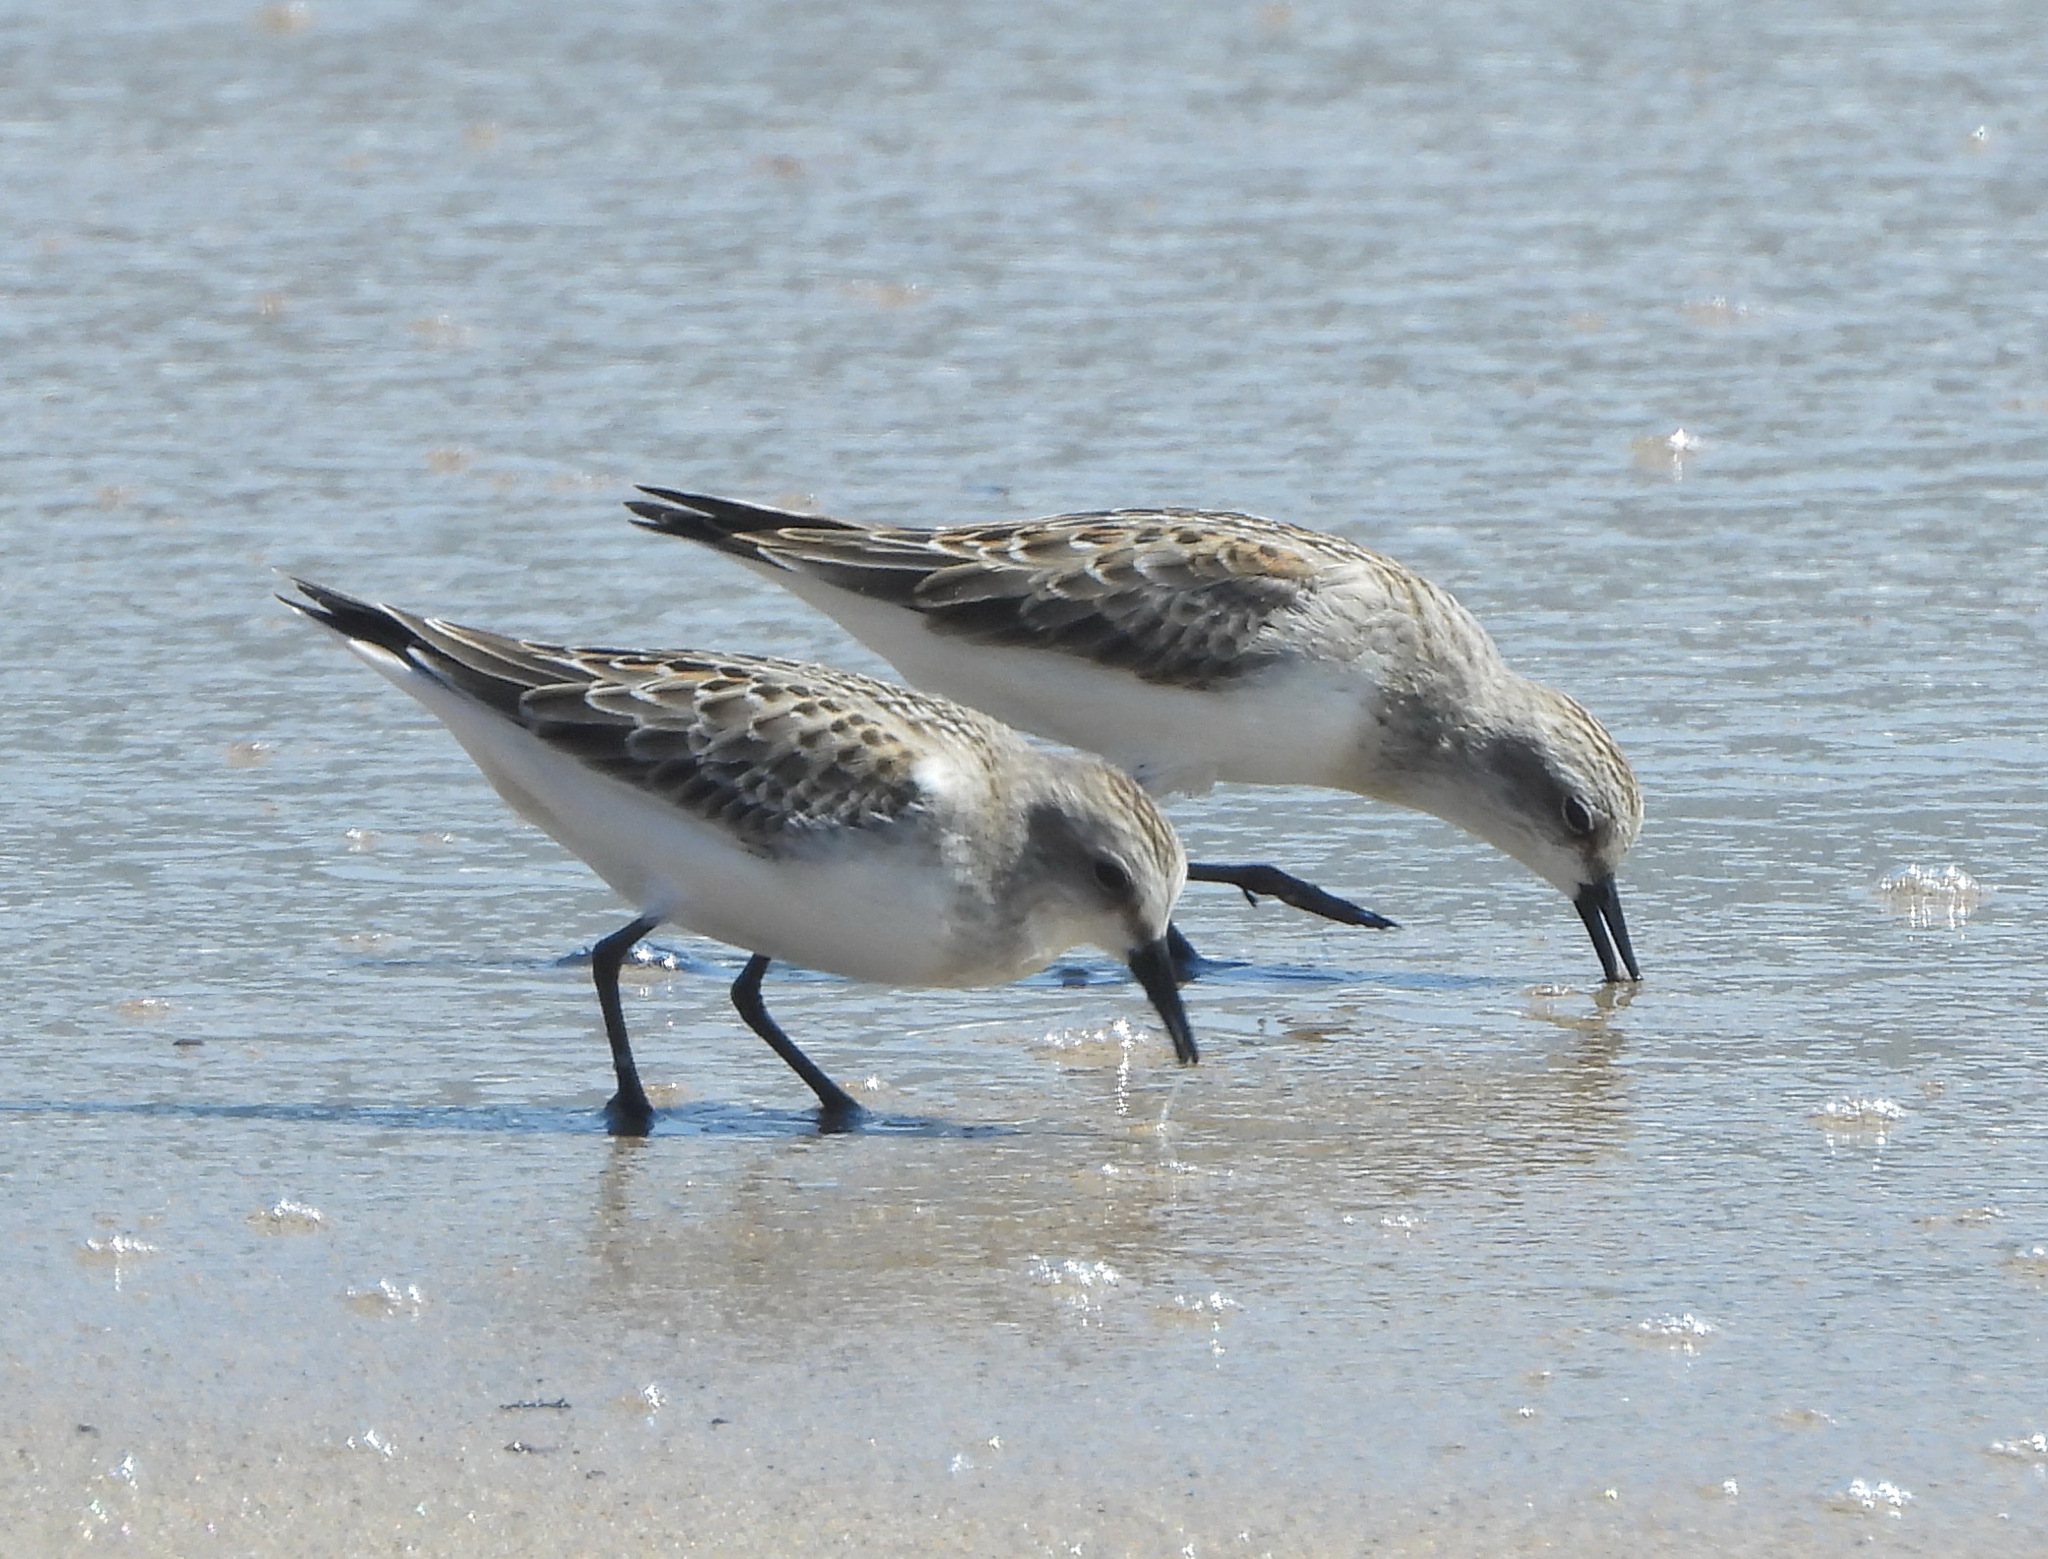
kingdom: Animalia
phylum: Chordata
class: Aves
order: Charadriiformes
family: Scolopacidae
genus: Calidris
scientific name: Calidris ruficollis
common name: Red-necked stint
